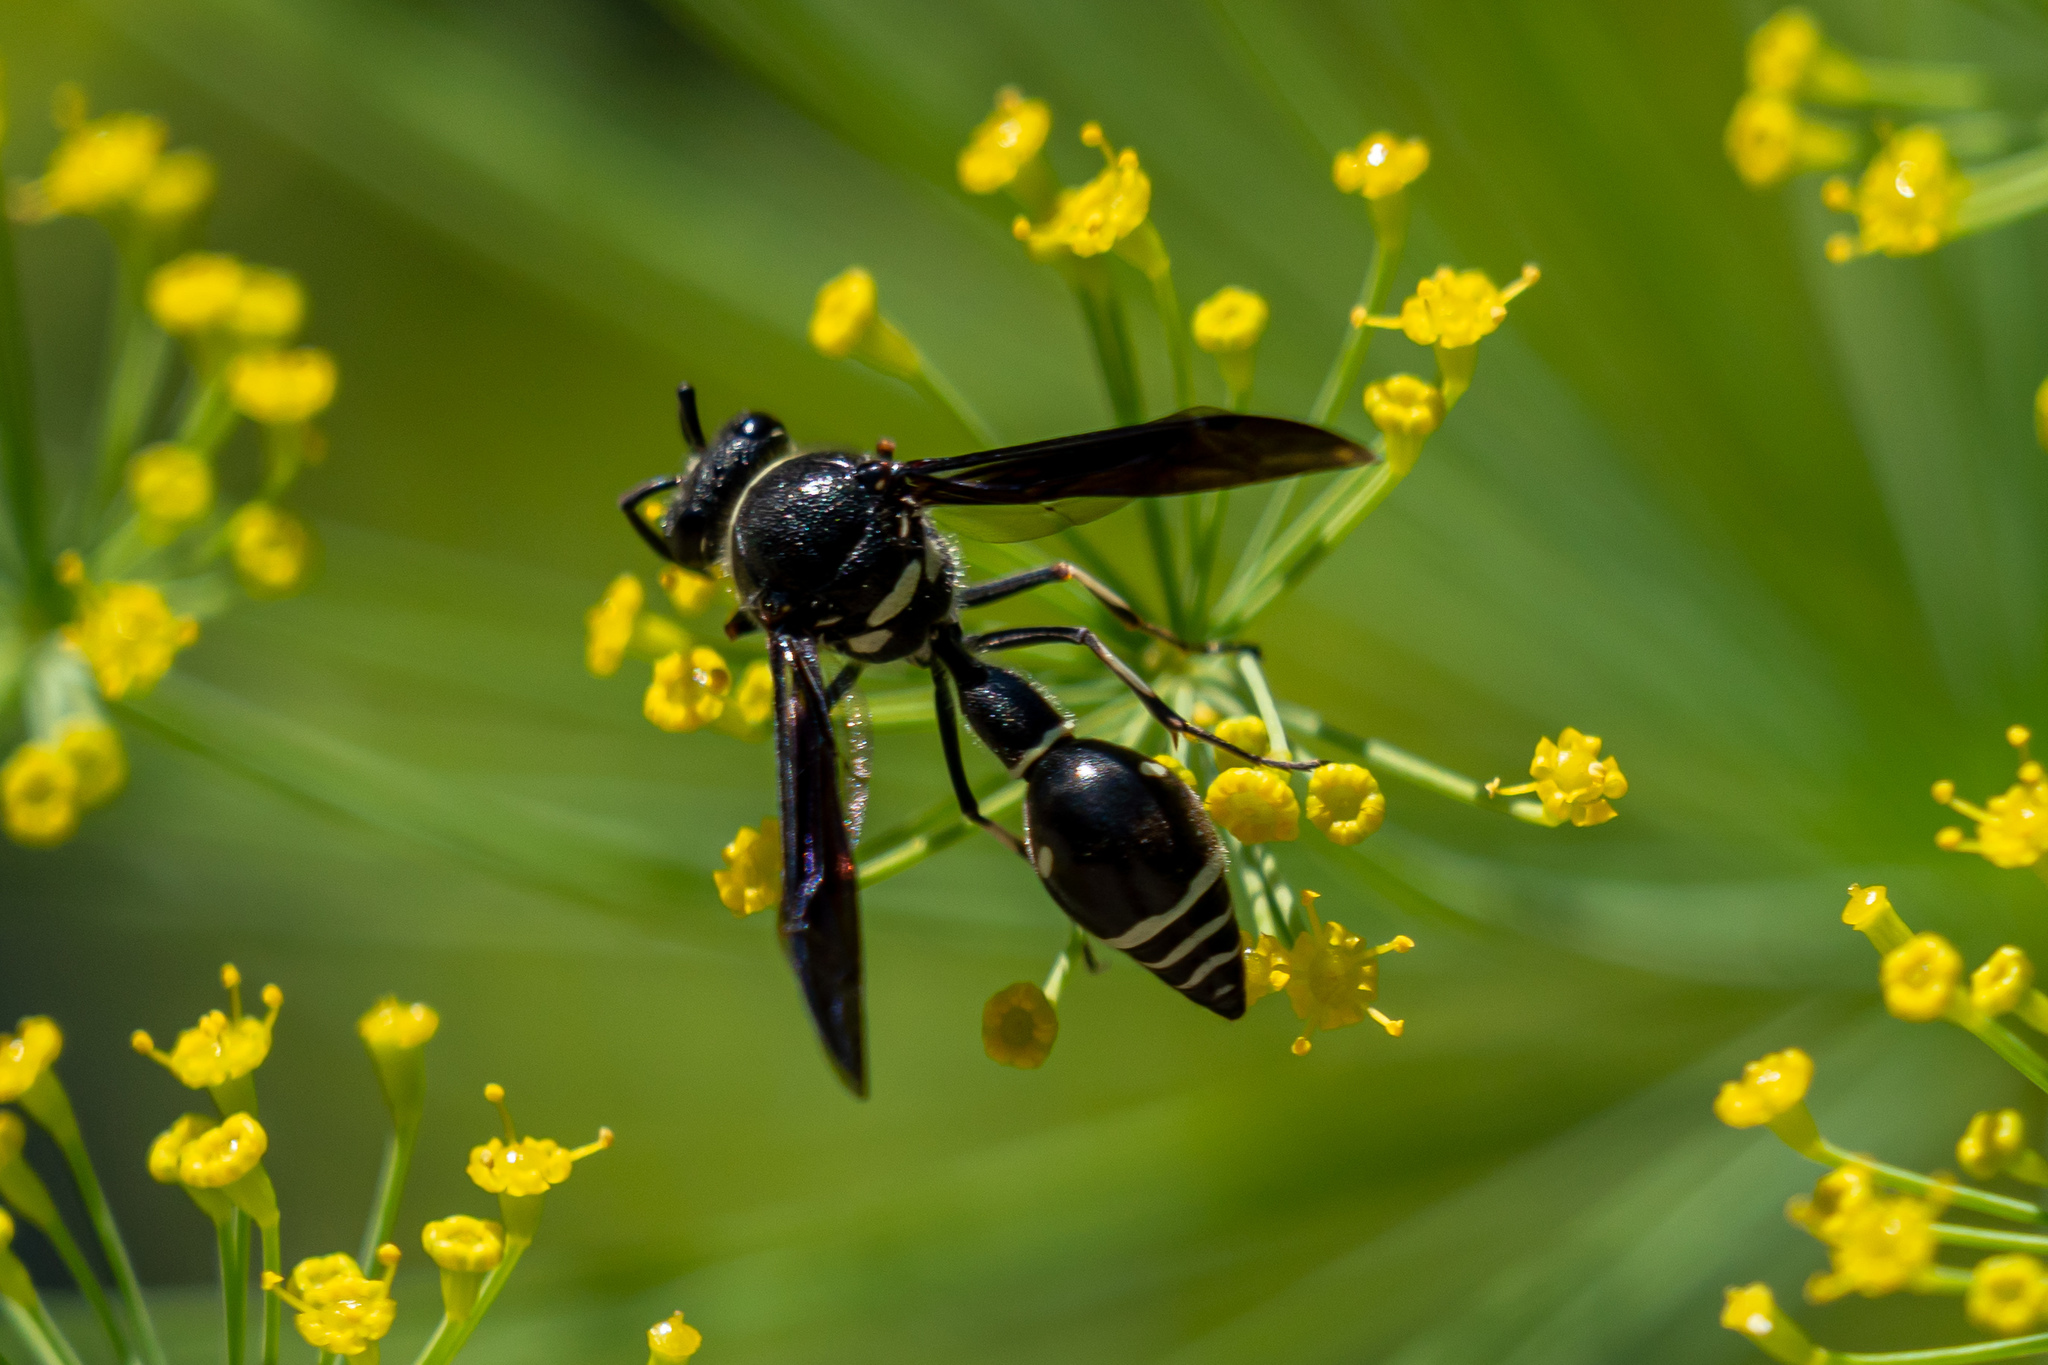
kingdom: Animalia
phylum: Arthropoda
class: Insecta
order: Hymenoptera
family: Vespidae
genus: Eumenes
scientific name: Eumenes fraternus
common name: Fraternal potter wasp
